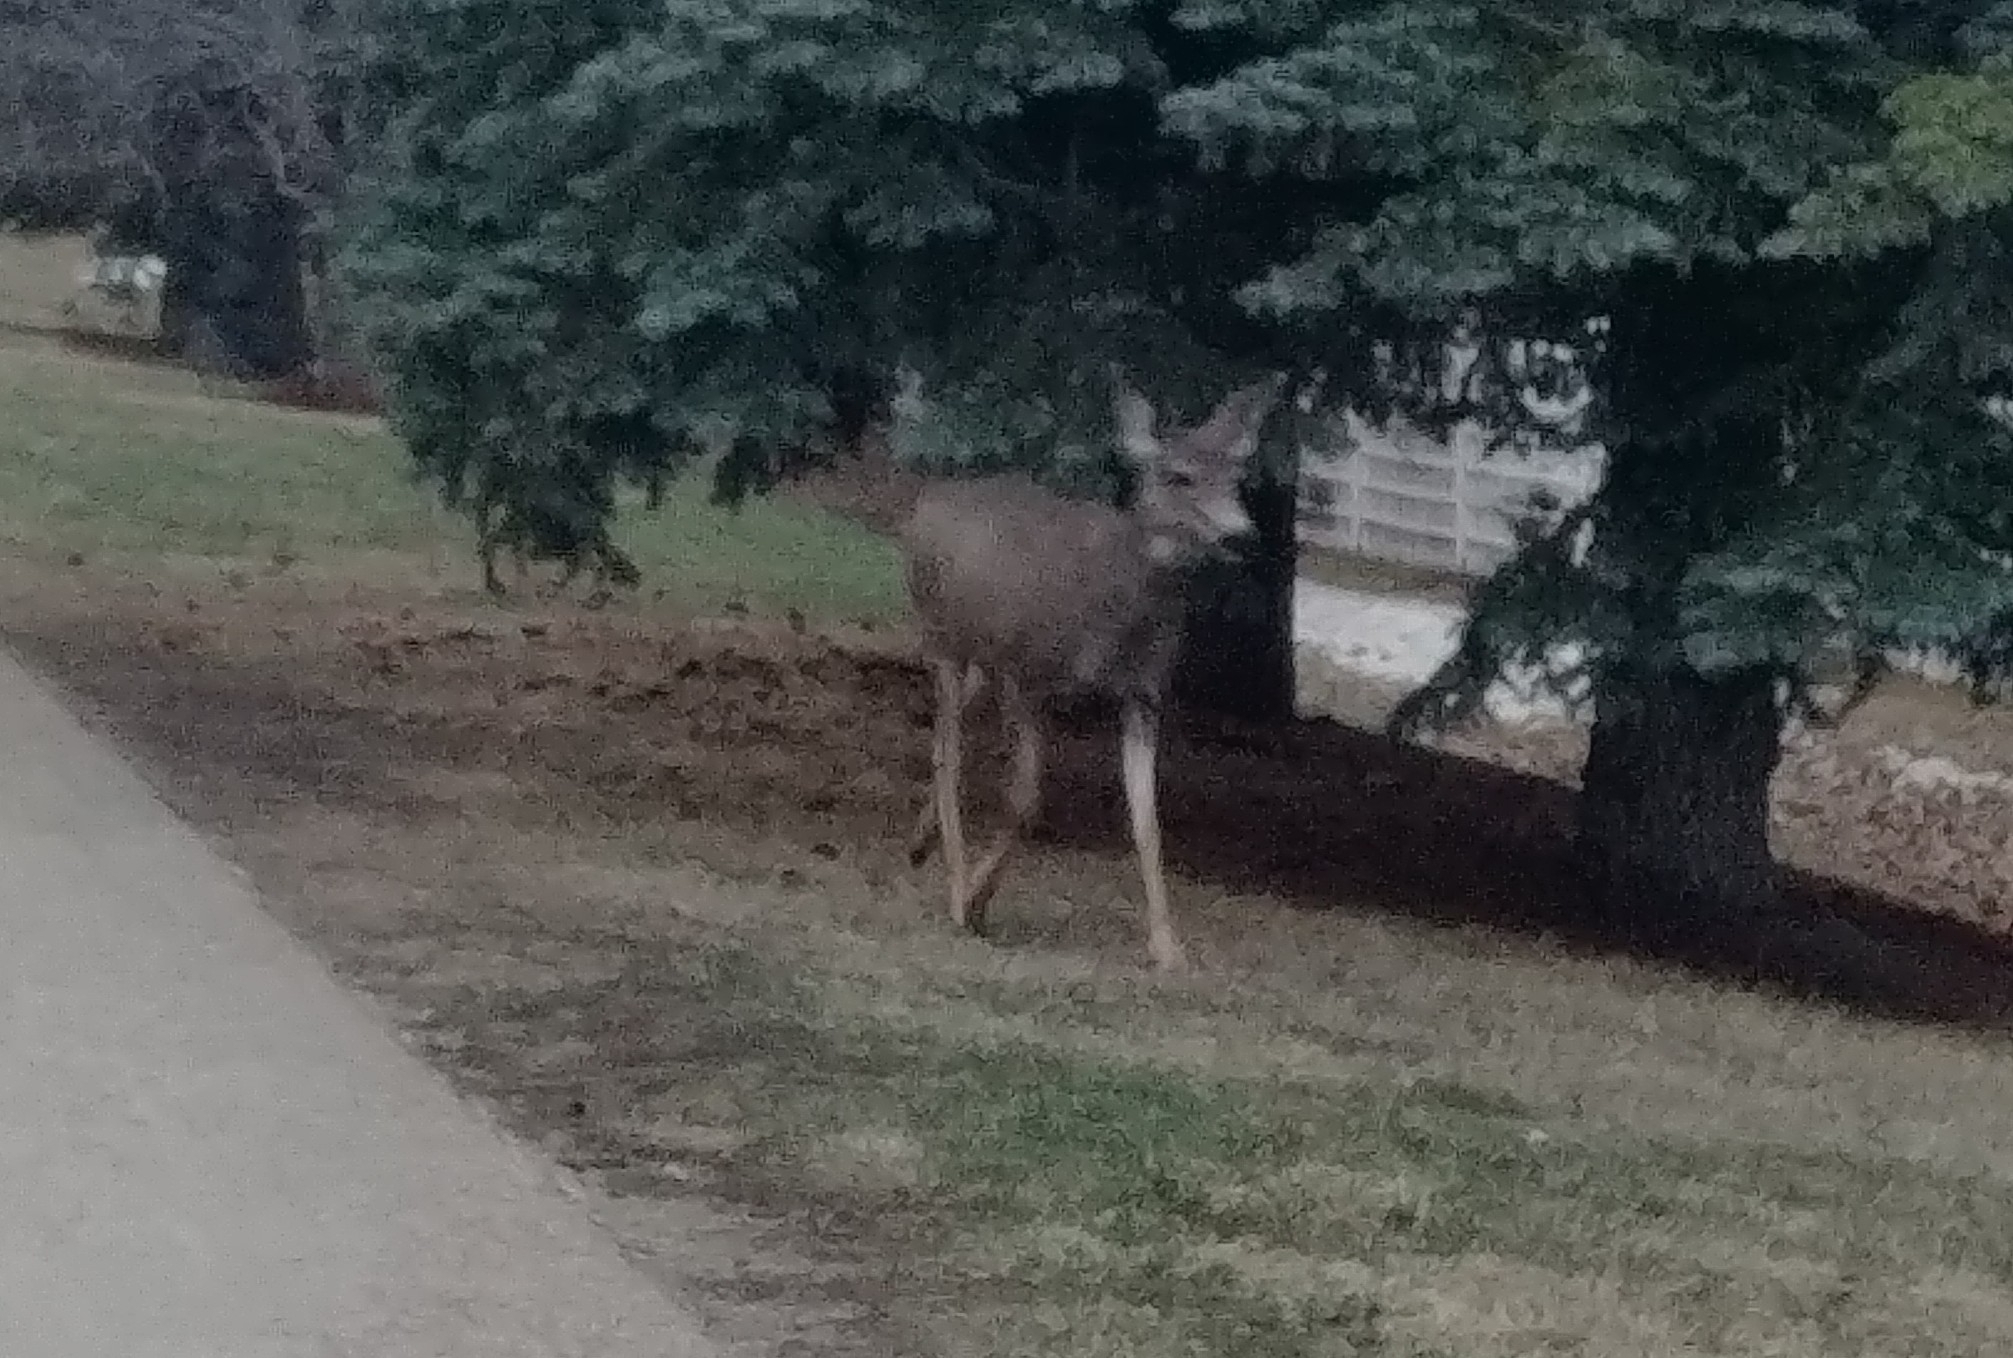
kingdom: Animalia
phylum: Chordata
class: Mammalia
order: Artiodactyla
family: Cervidae
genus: Odocoileus
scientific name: Odocoileus hemionus
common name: Mule deer
